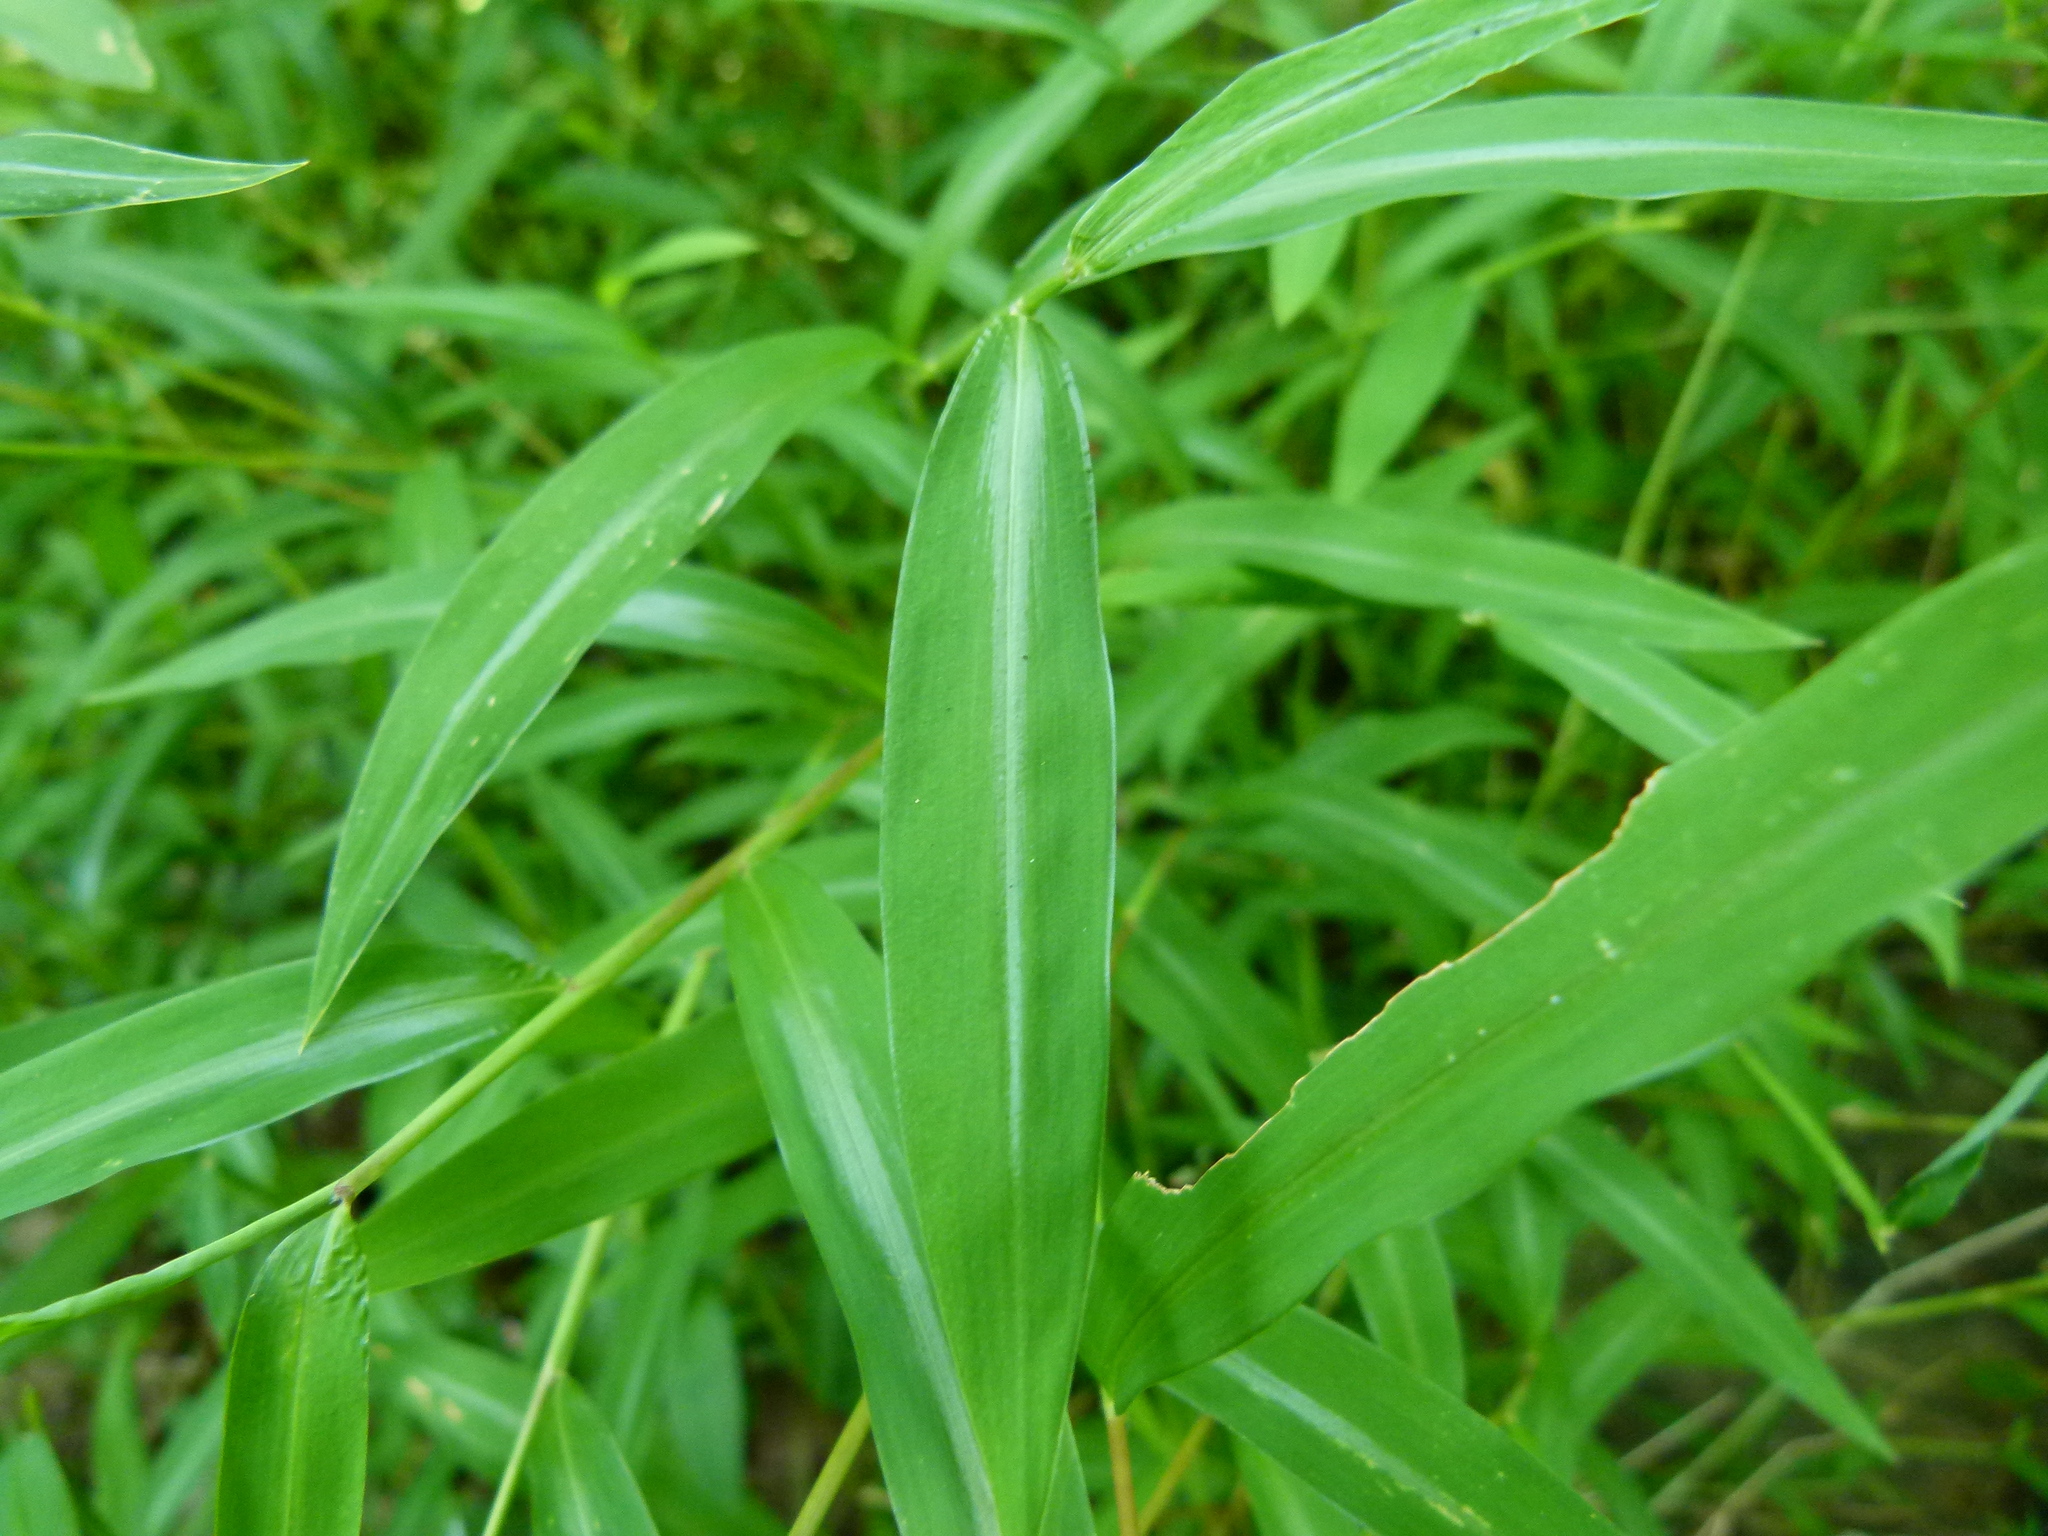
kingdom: Plantae
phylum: Tracheophyta
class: Liliopsida
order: Poales
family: Poaceae
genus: Microstegium
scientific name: Microstegium vimineum
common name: Japanese stiltgrass
